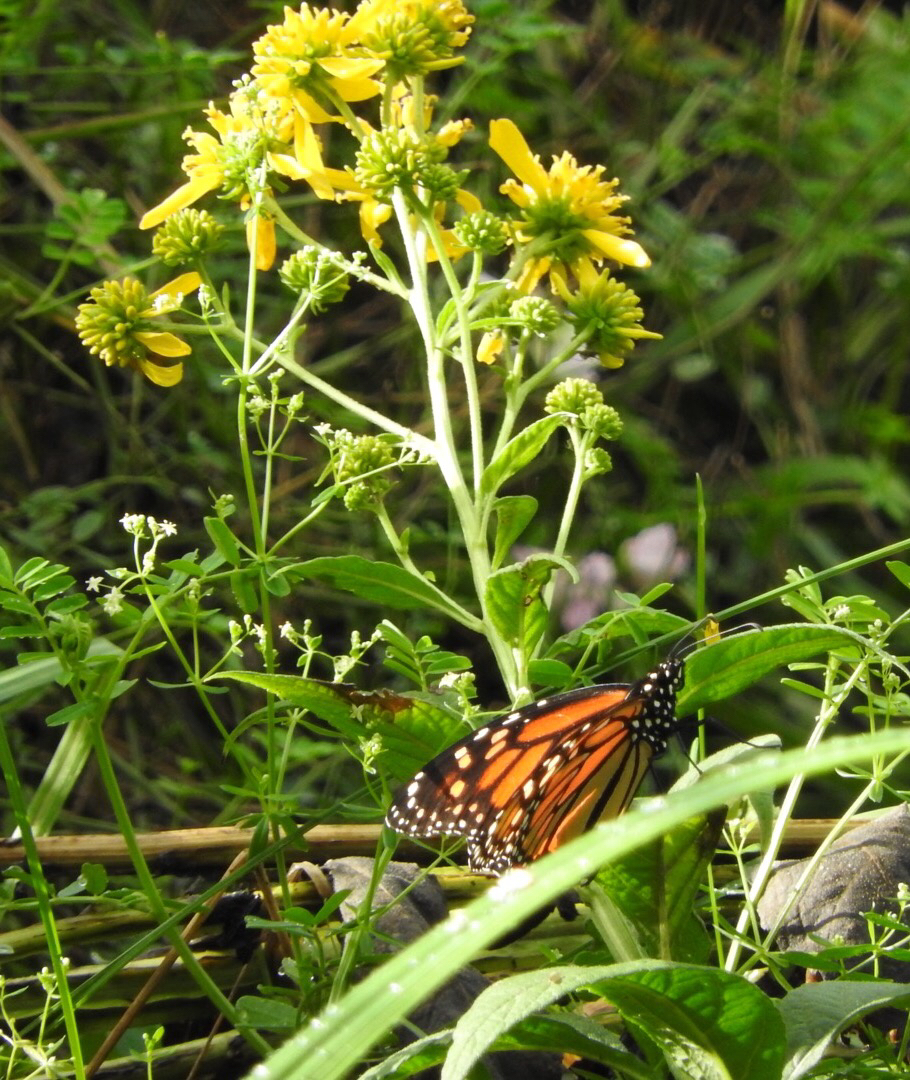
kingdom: Animalia
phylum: Arthropoda
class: Insecta
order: Lepidoptera
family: Nymphalidae
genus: Danaus
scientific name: Danaus plexippus
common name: Monarch
